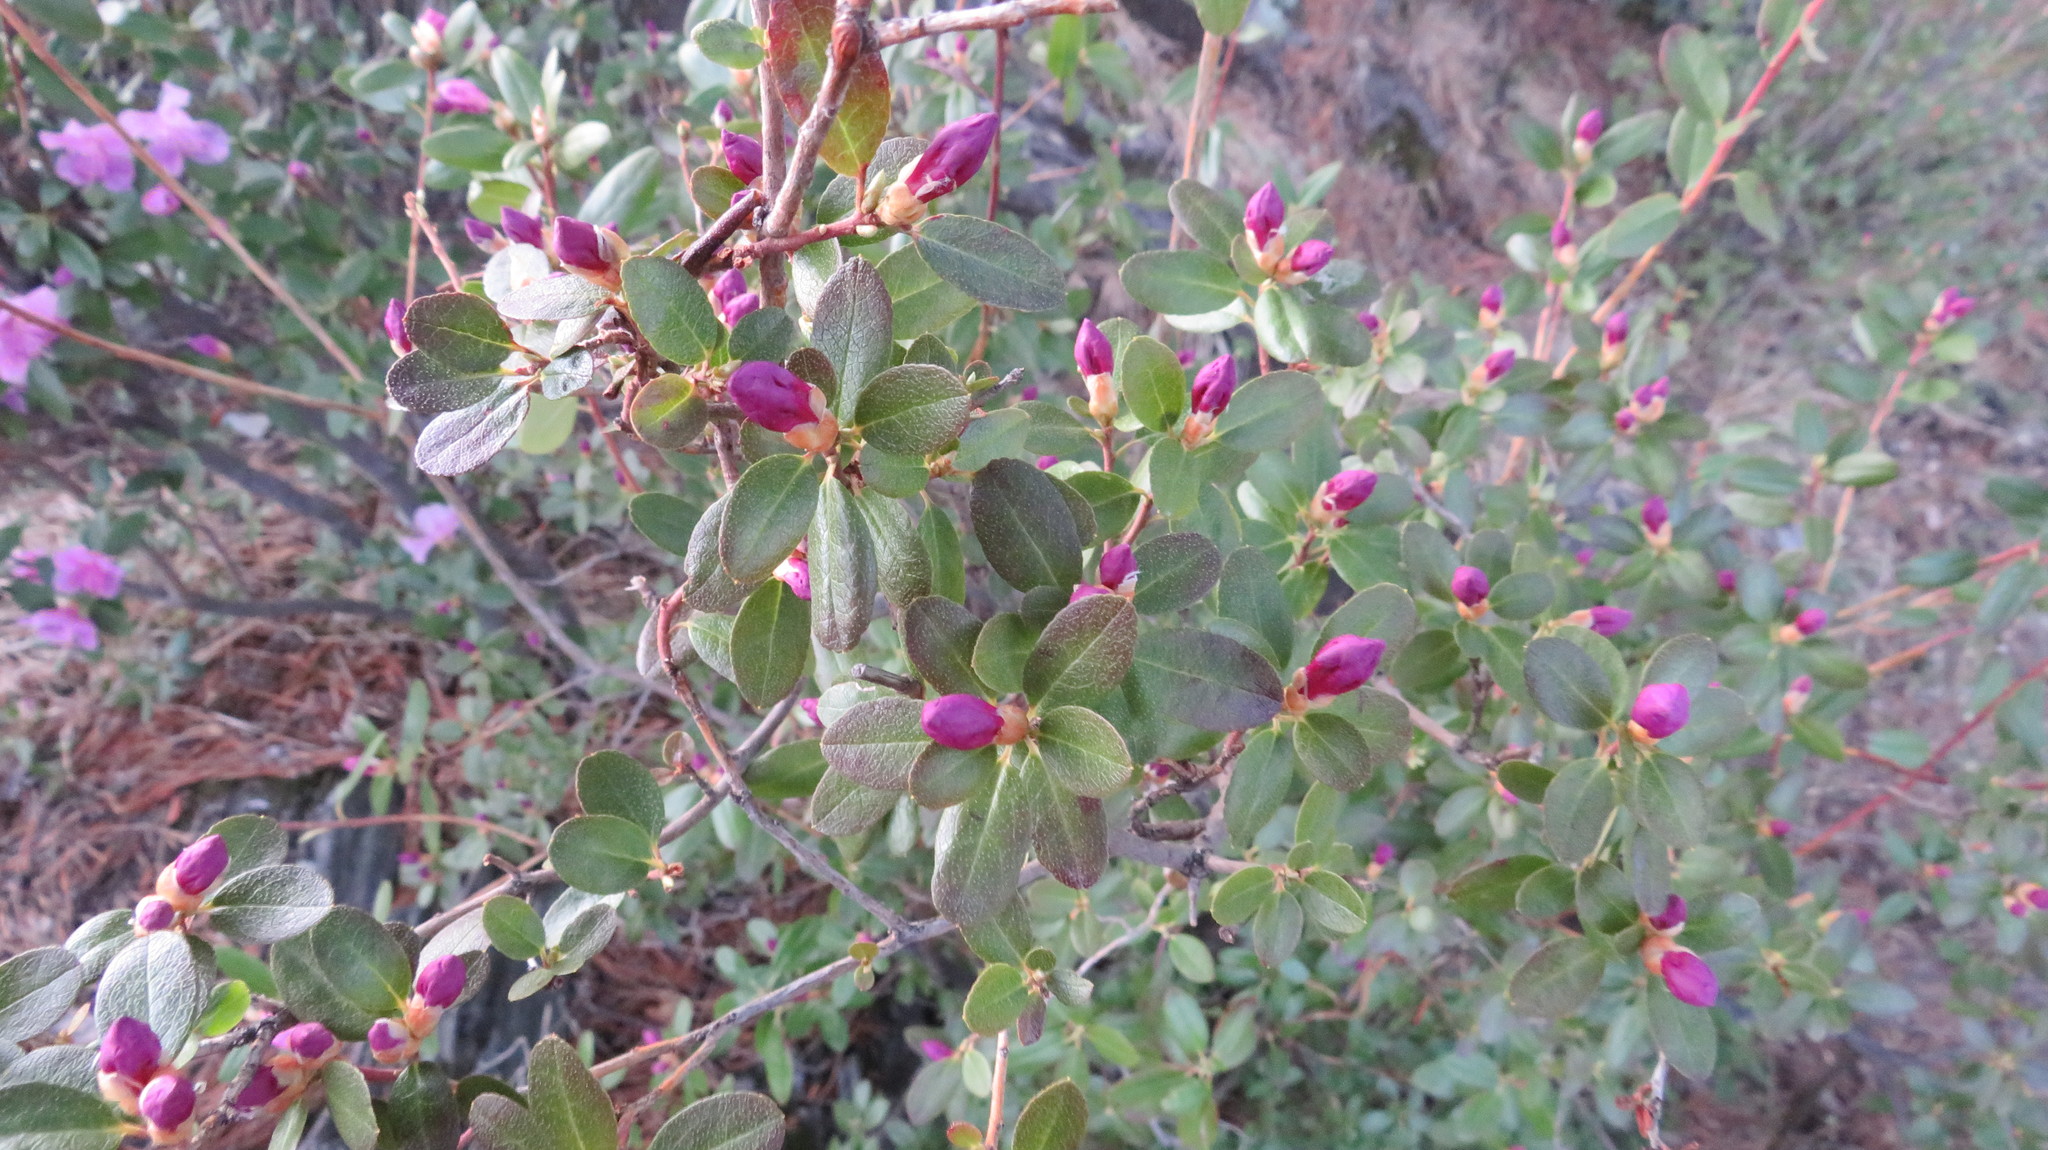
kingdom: Plantae
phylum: Tracheophyta
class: Magnoliopsida
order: Ericales
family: Ericaceae
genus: Rhododendron
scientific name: Rhododendron dauricum
